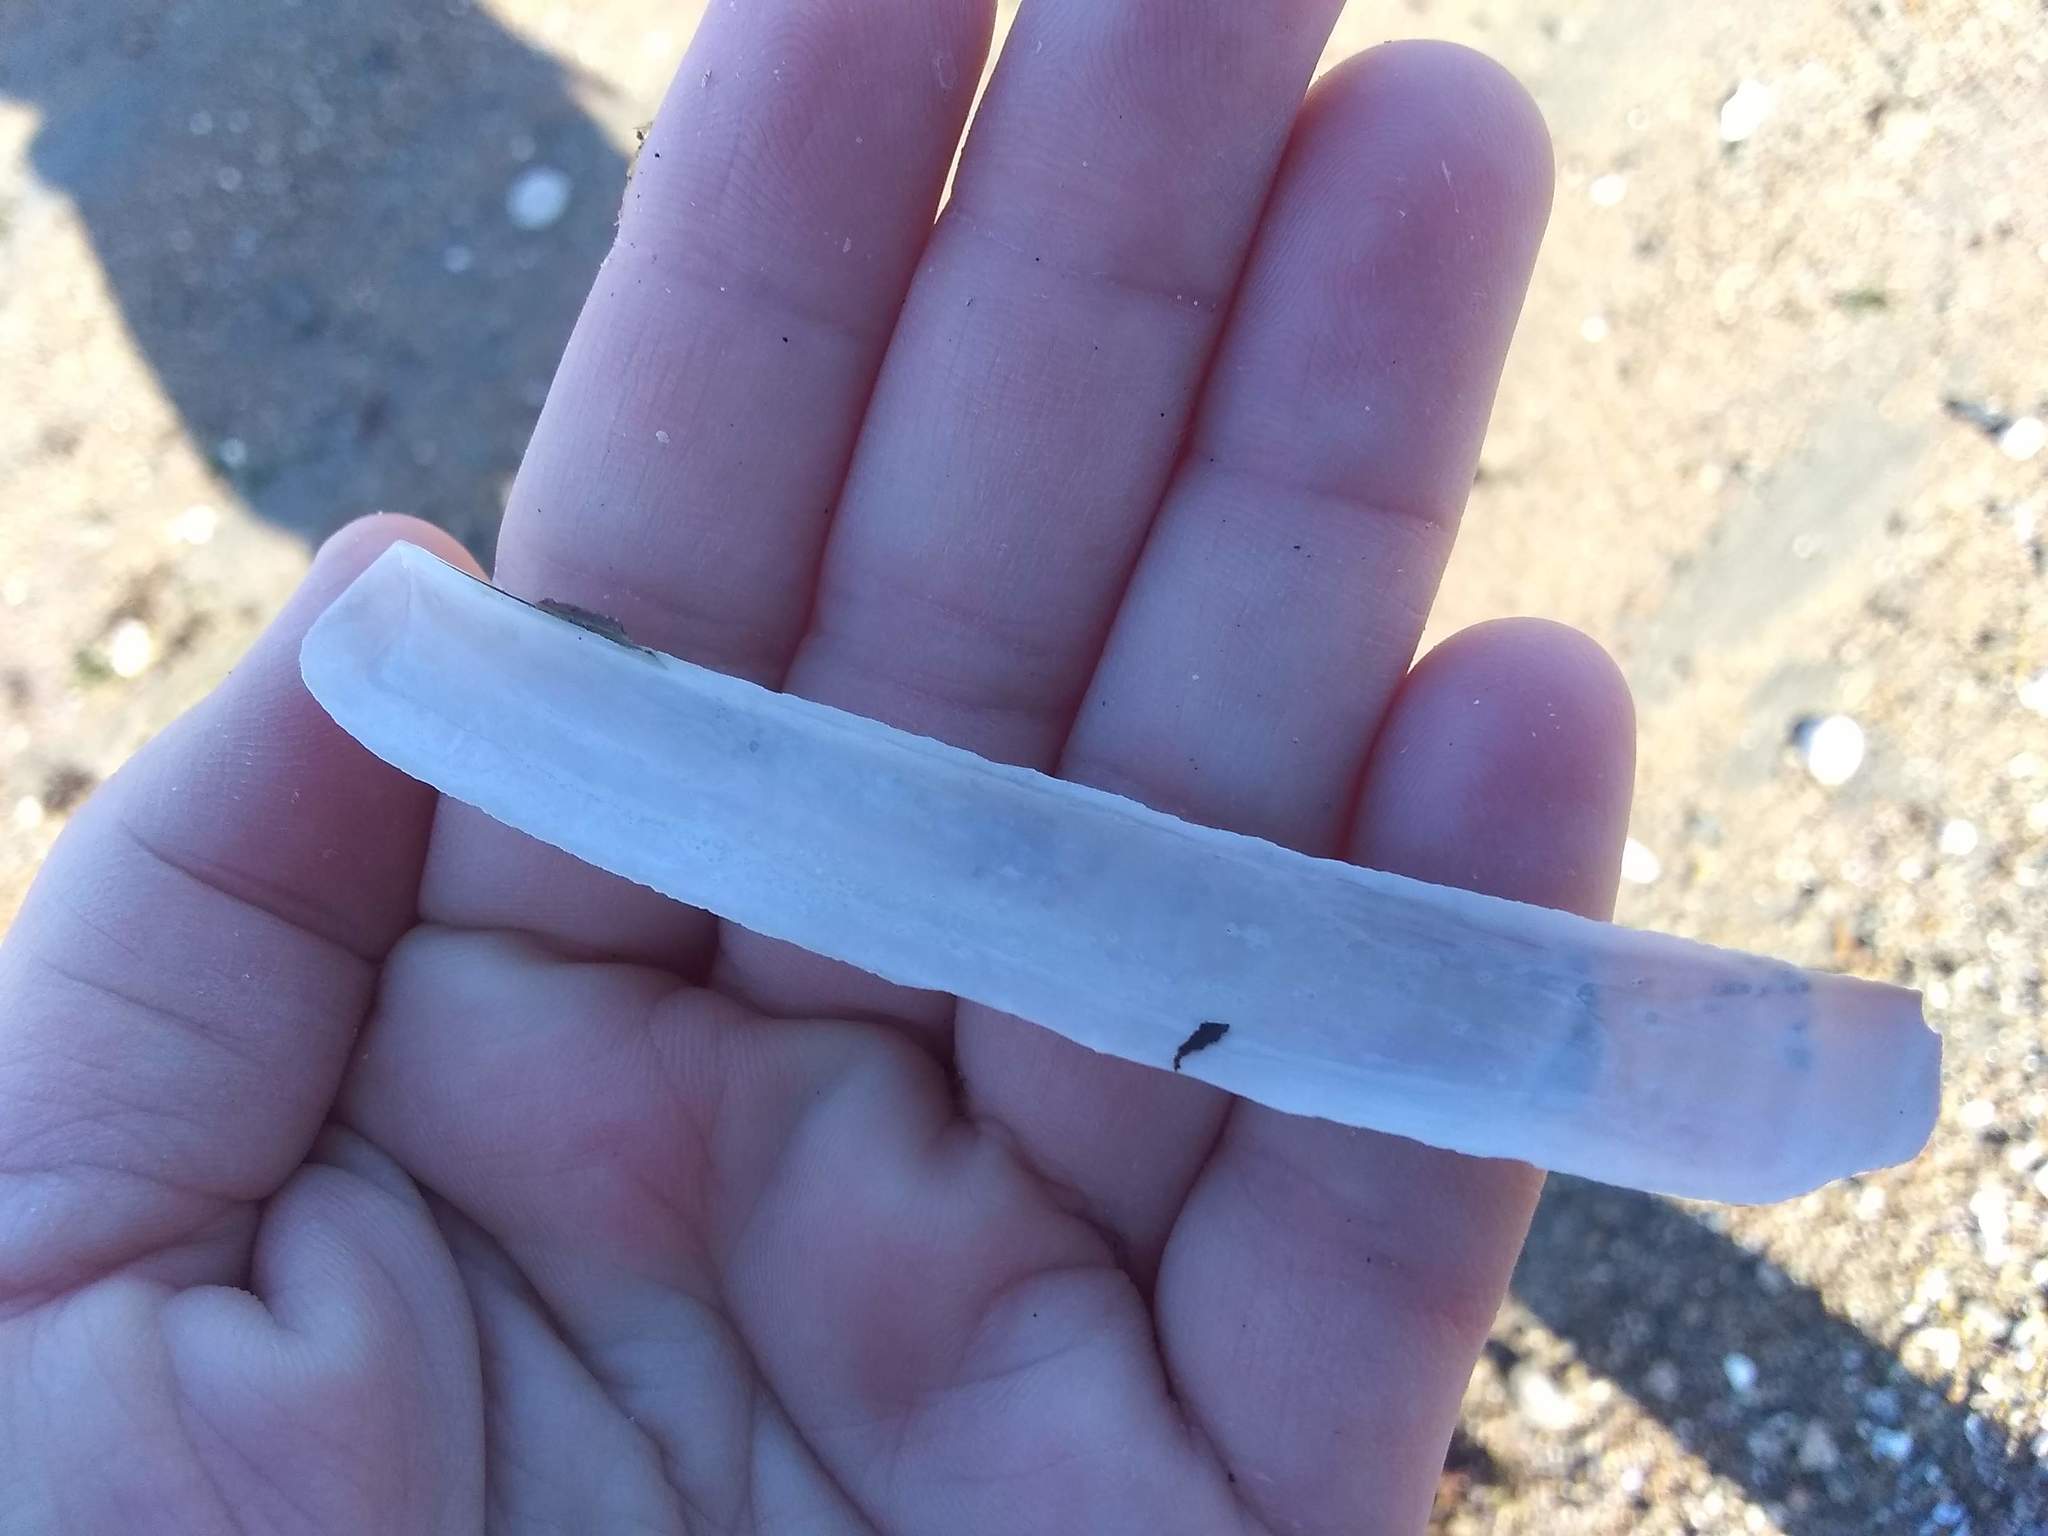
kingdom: Animalia
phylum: Mollusca
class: Bivalvia
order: Adapedonta
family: Pharidae
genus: Ensis
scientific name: Ensis leei
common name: American jack knife clam
